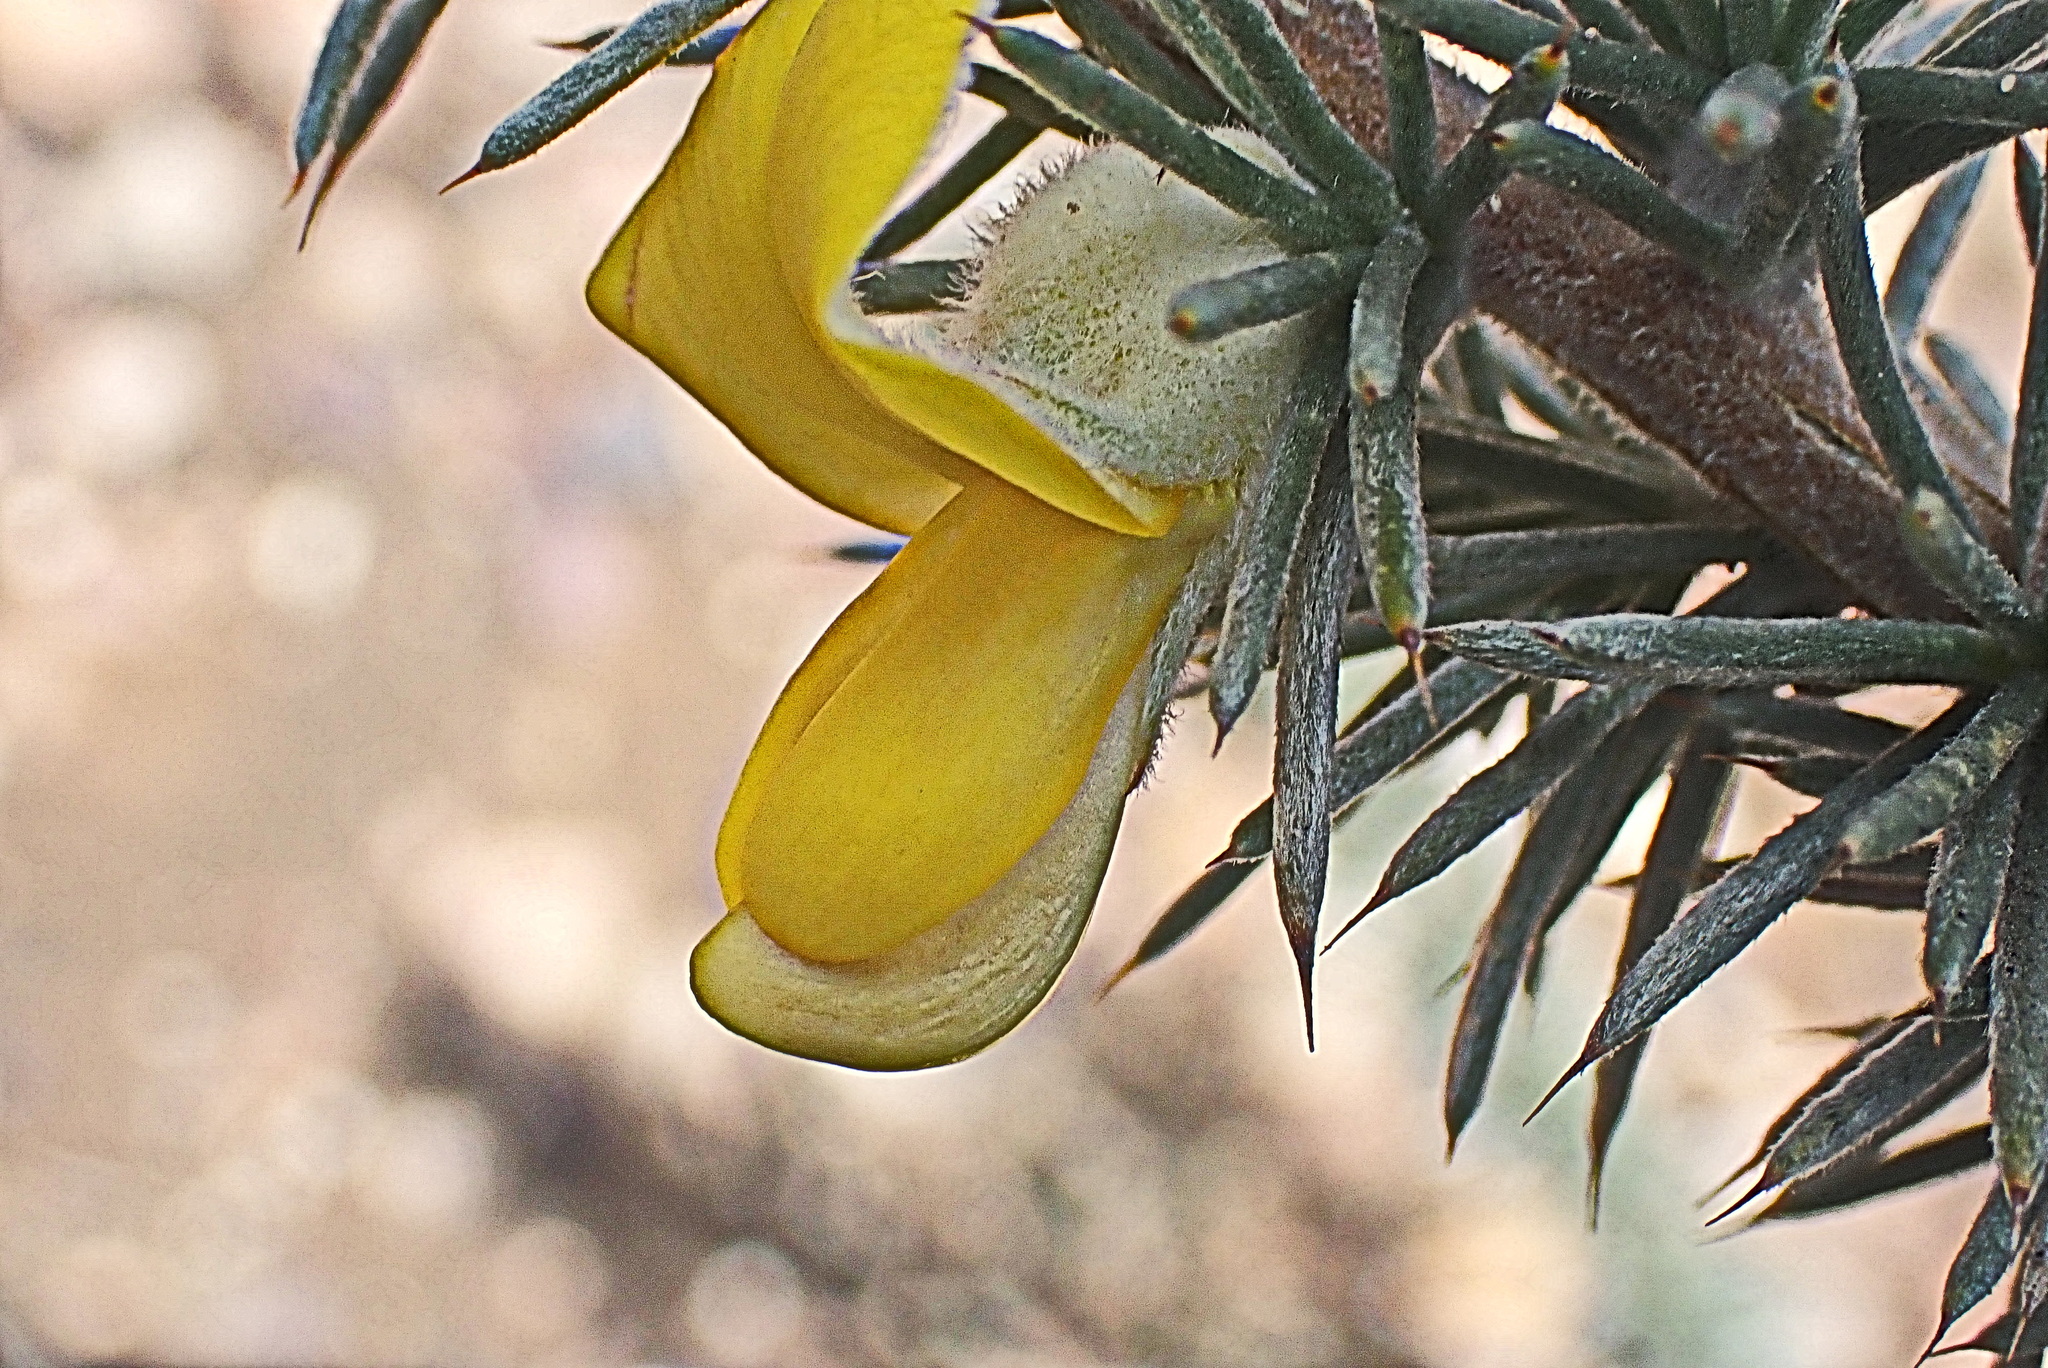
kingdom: Plantae
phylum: Tracheophyta
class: Magnoliopsida
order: Fabales
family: Fabaceae
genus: Aspalathus
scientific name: Aspalathus hystrix
